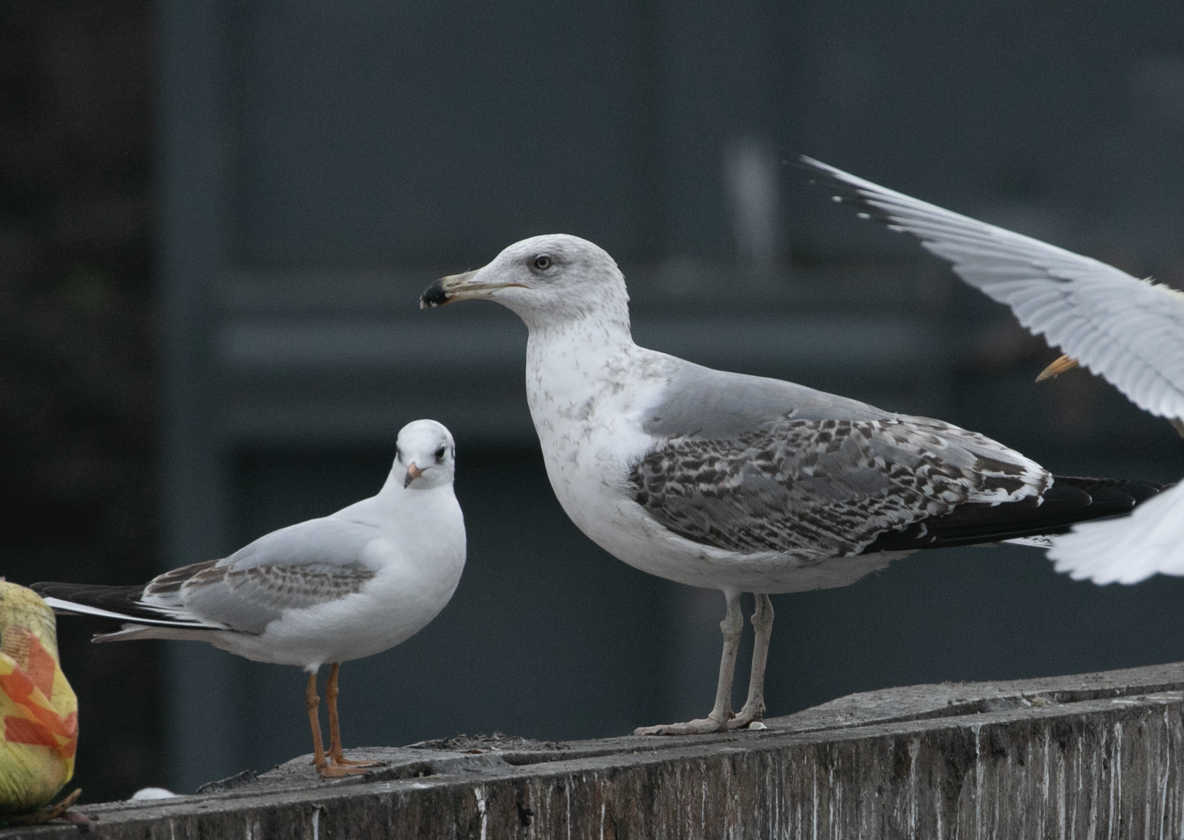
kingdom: Animalia
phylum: Chordata
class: Aves
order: Charadriiformes
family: Laridae
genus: Larus
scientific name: Larus michahellis
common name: Yellow-legged gull
